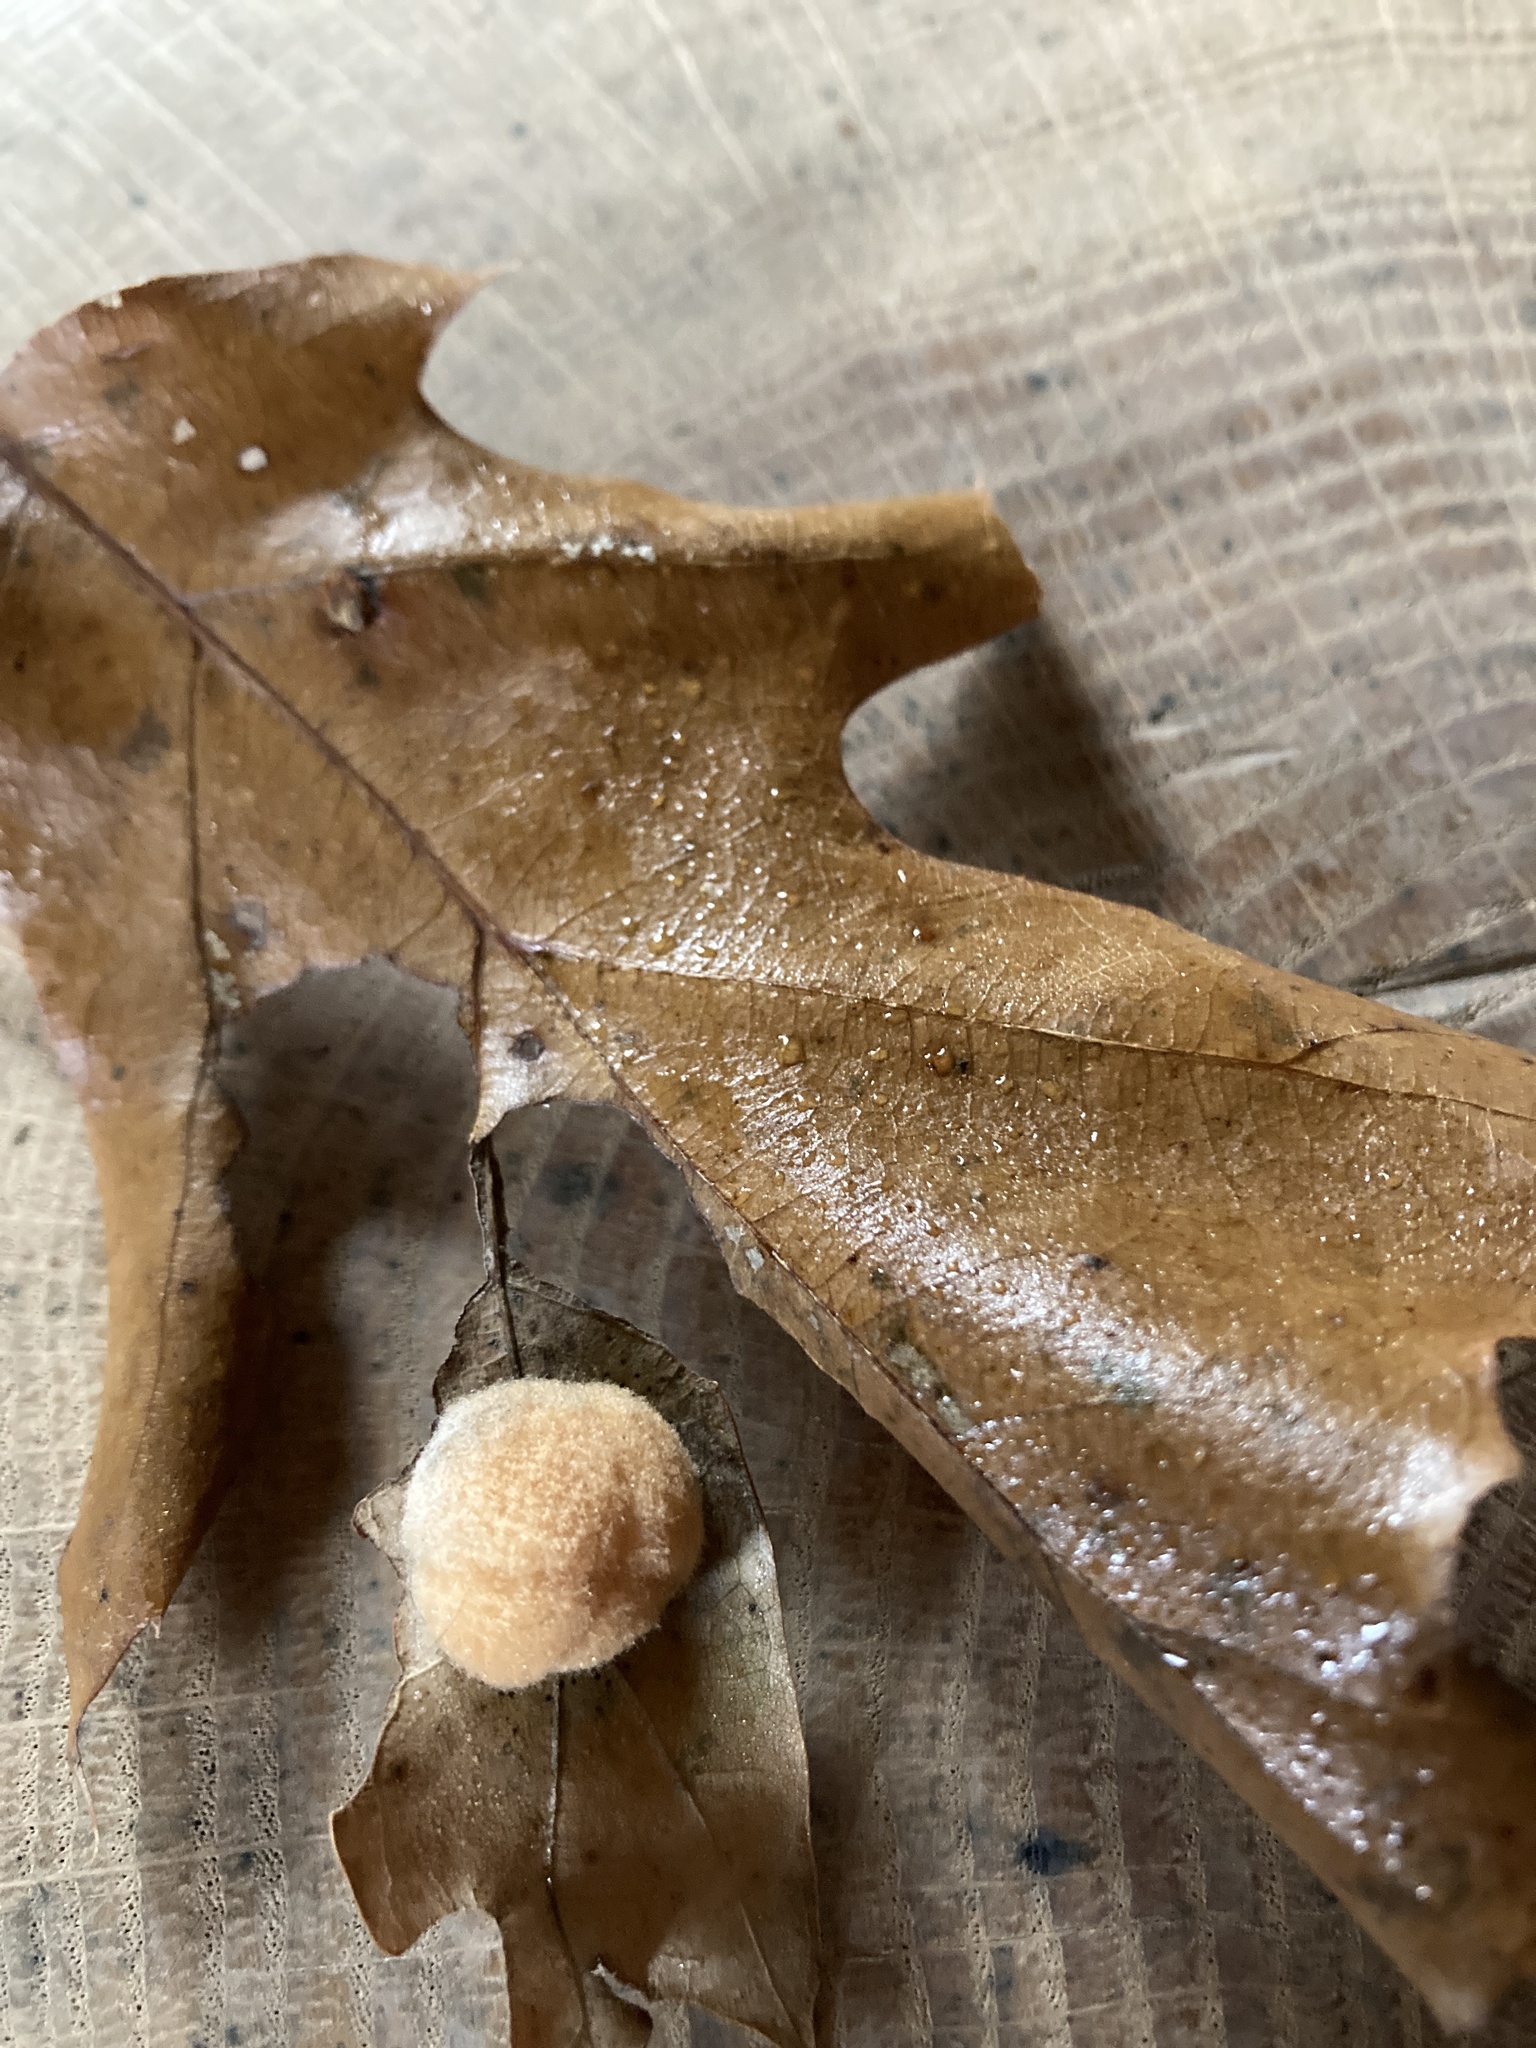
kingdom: Animalia
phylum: Arthropoda
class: Insecta
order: Hymenoptera
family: Cynipidae
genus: Callirhytis
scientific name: Callirhytis
